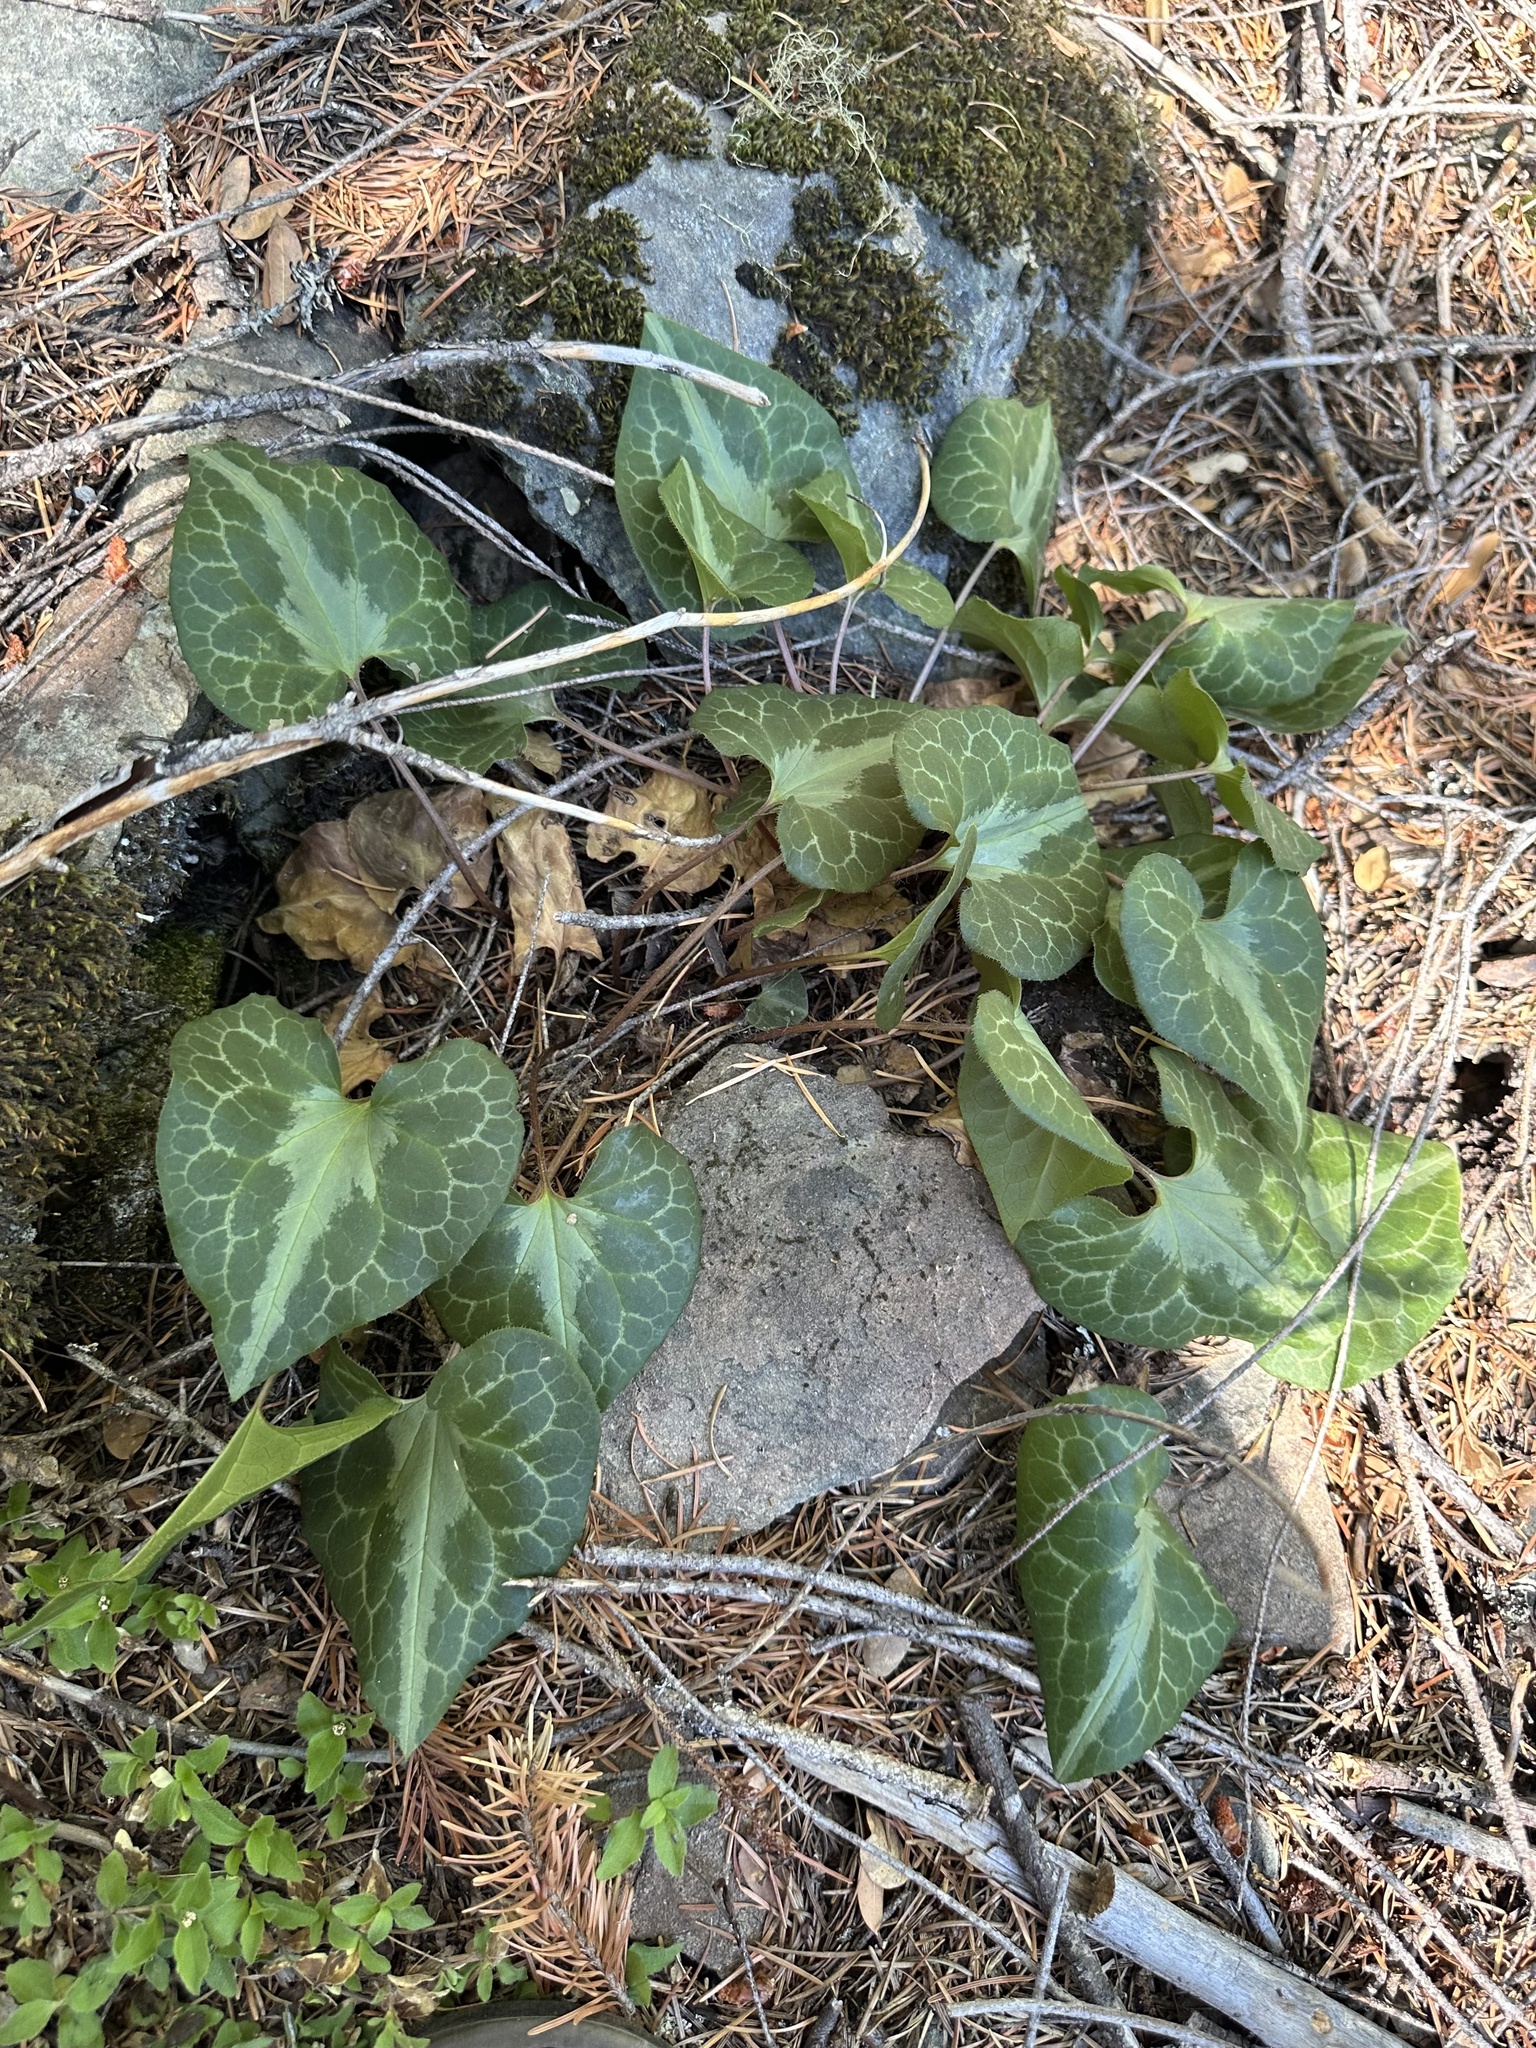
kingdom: Plantae
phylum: Tracheophyta
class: Magnoliopsida
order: Piperales
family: Aristolochiaceae
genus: Asarum
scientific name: Asarum marmoratum
